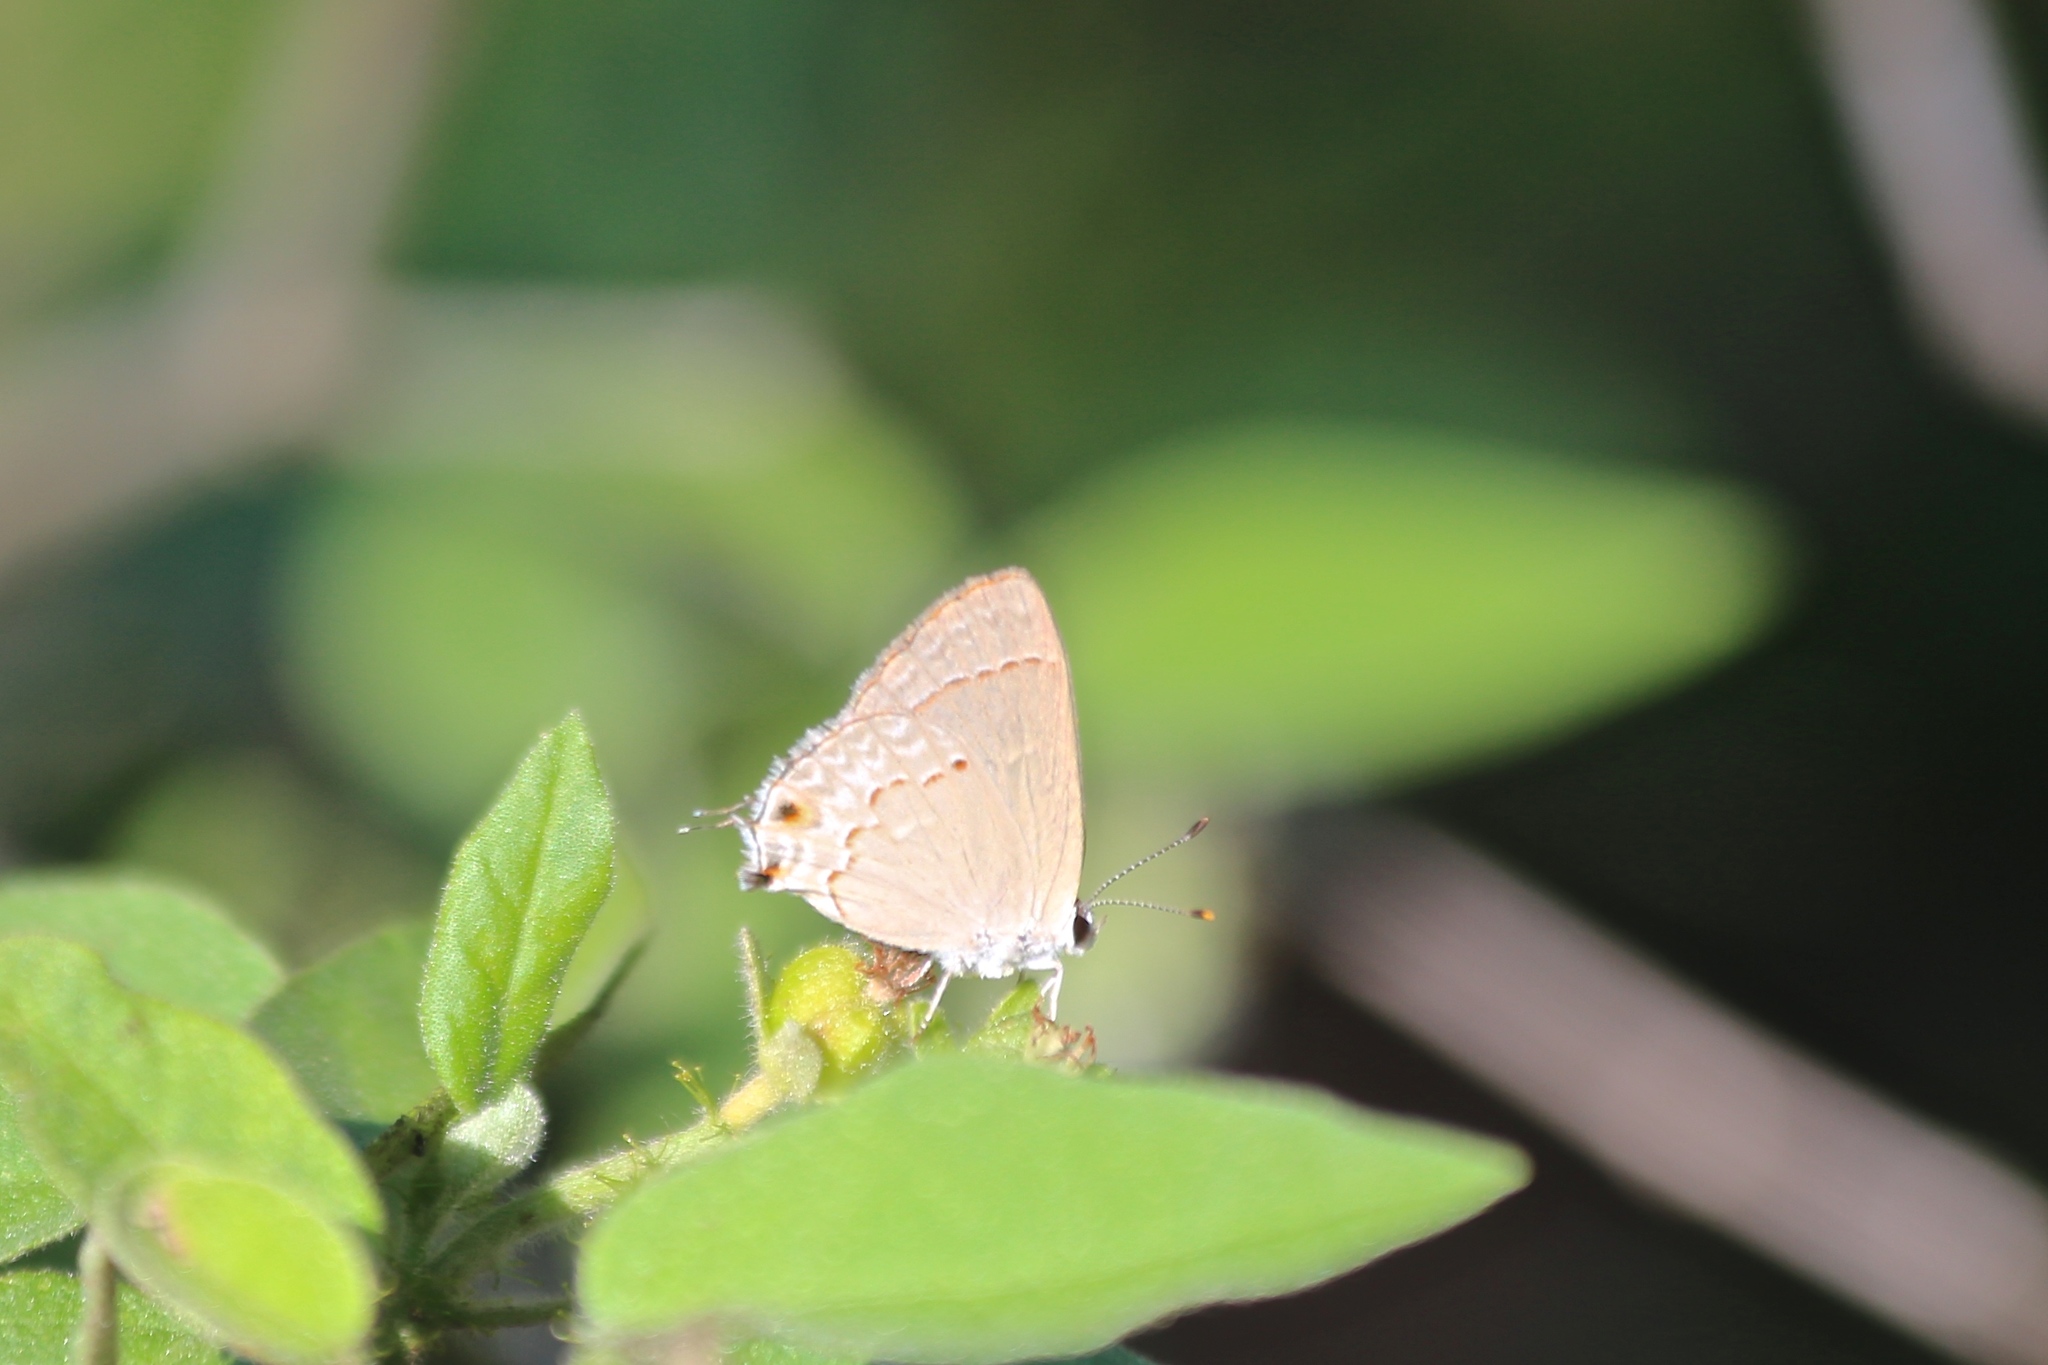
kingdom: Animalia
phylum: Arthropoda
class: Insecta
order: Lepidoptera
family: Lycaenidae
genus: Thecla
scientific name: Thecla rufofusca
